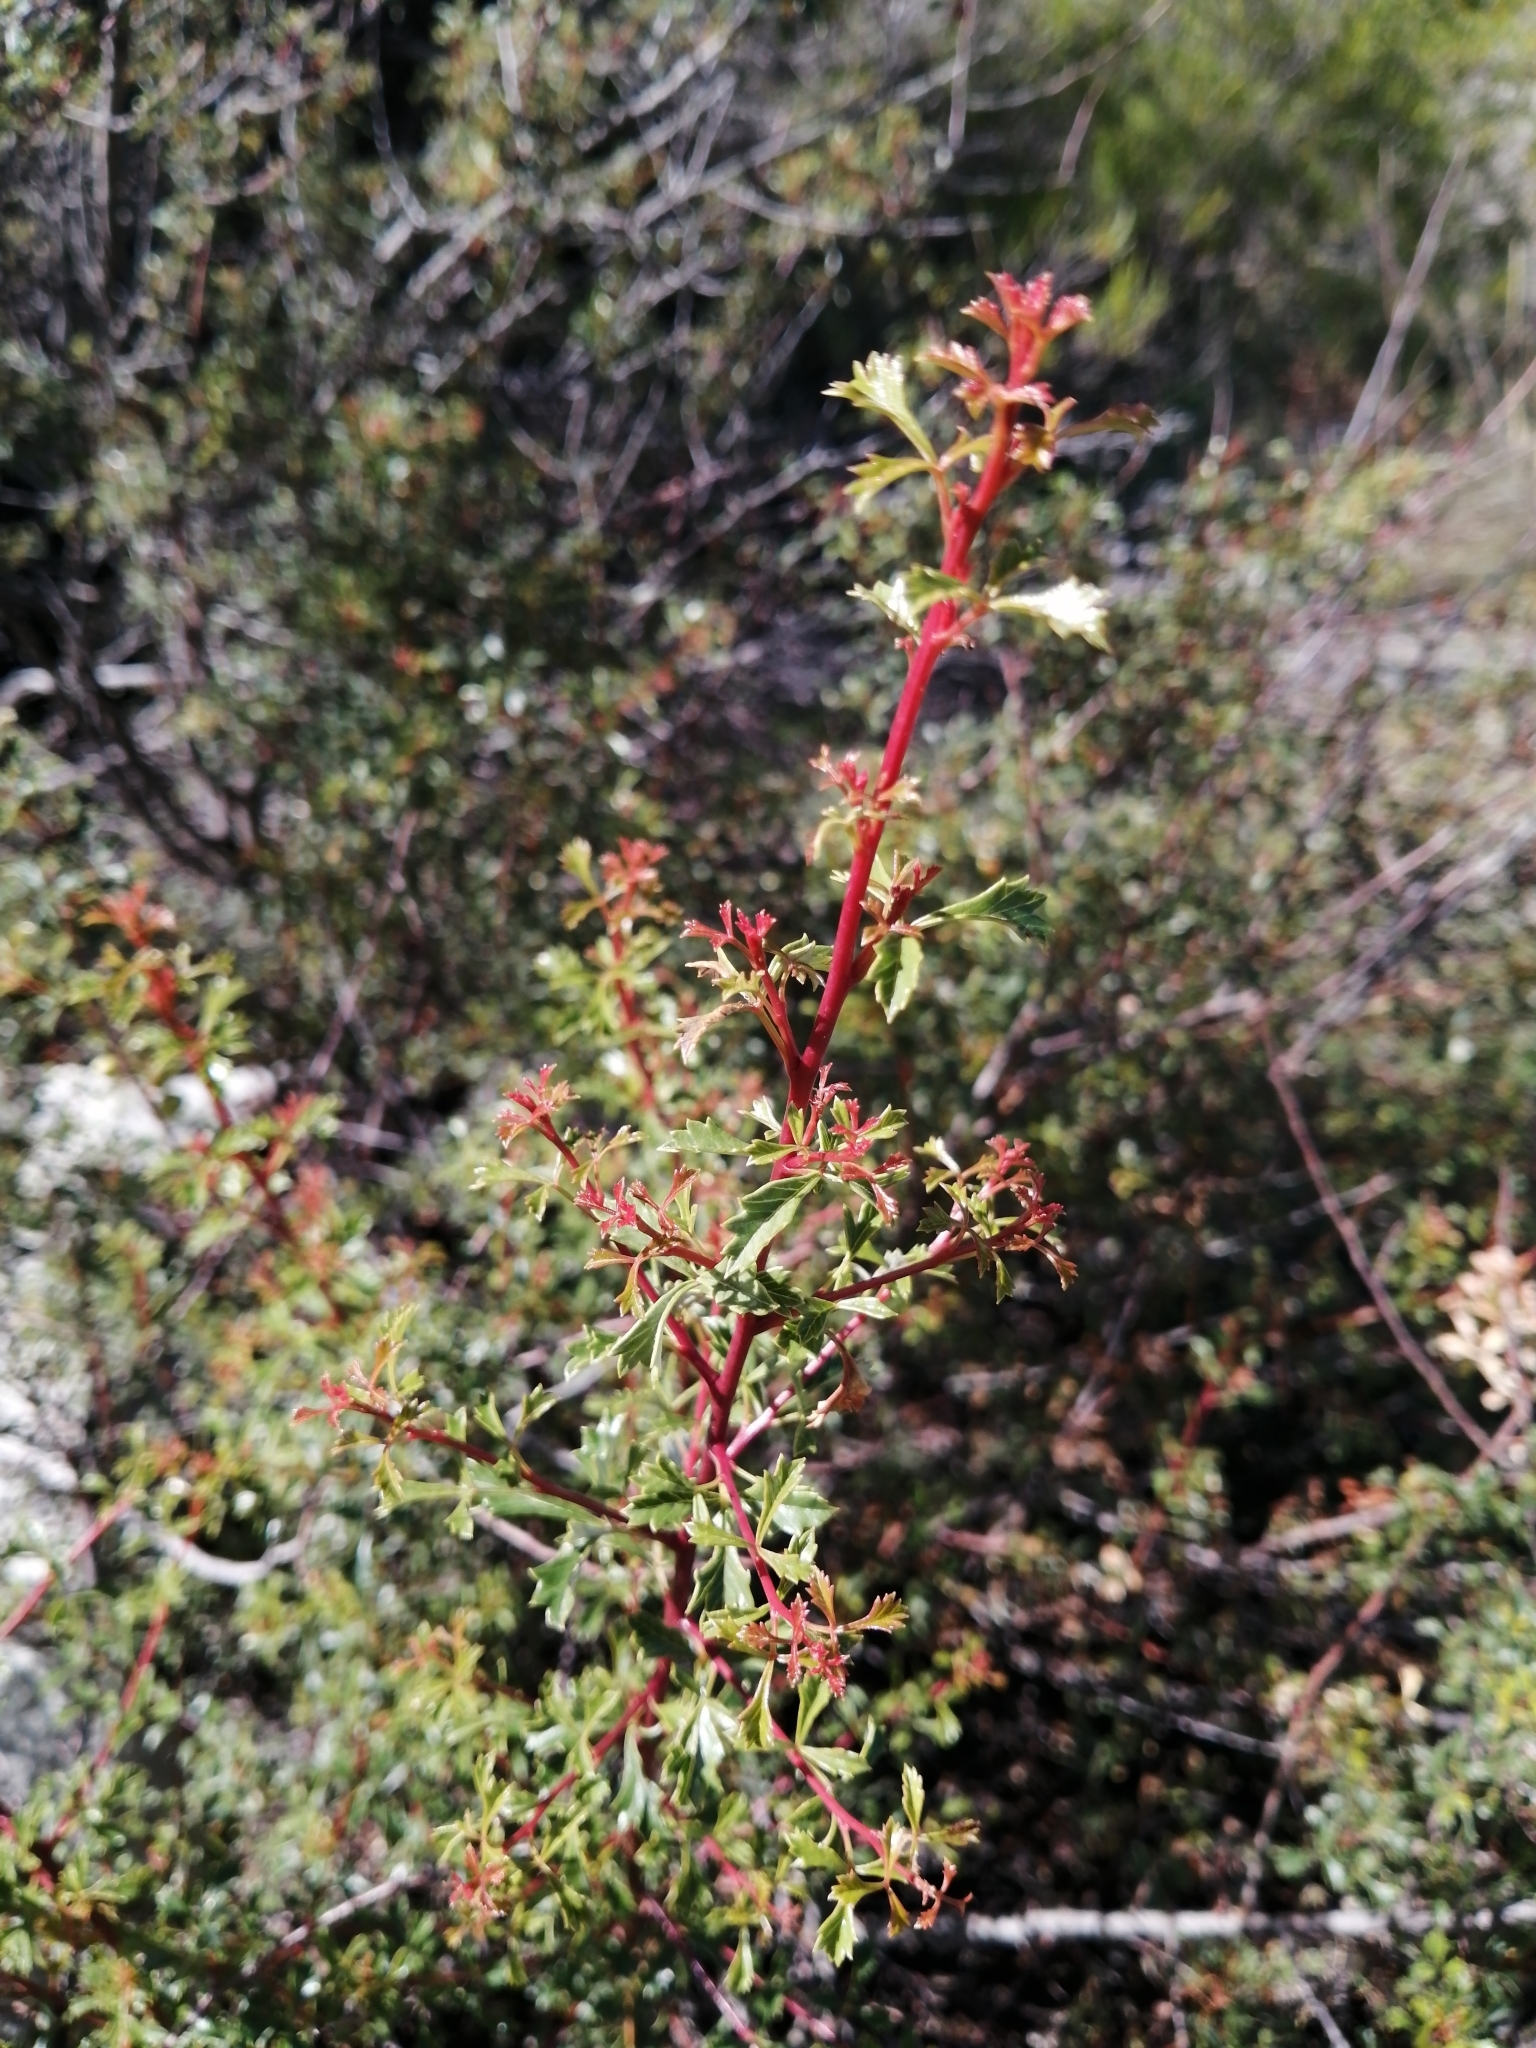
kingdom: Plantae
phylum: Tracheophyta
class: Magnoliopsida
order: Sapindales
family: Anacardiaceae
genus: Searsia
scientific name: Searsia dissecta
